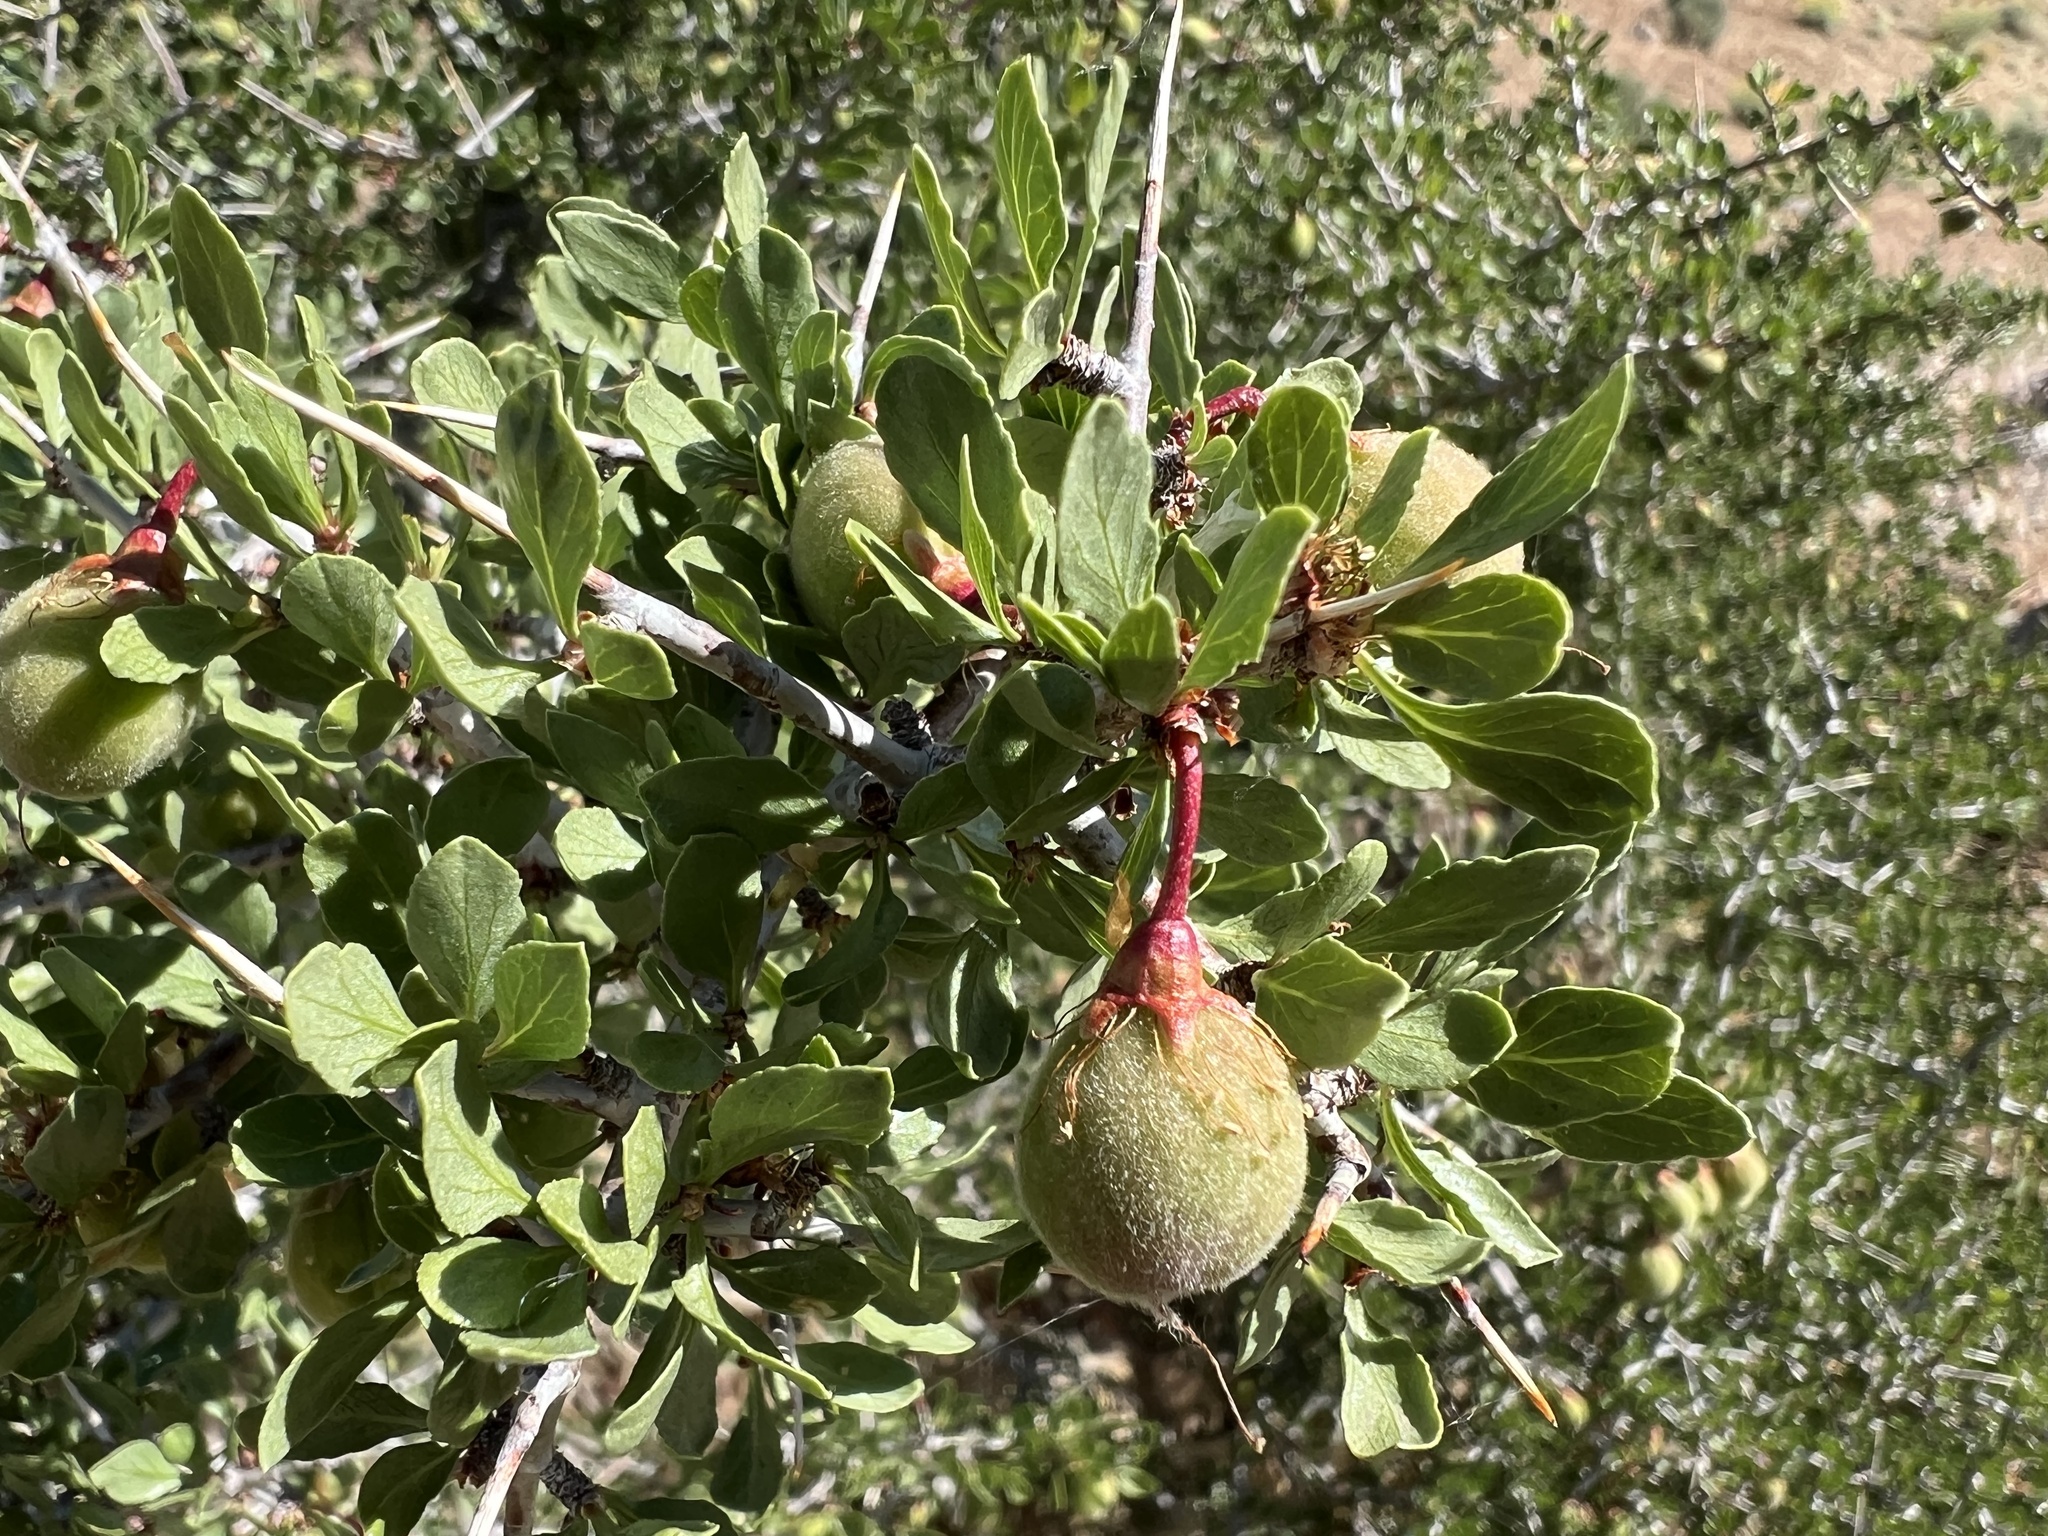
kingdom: Plantae
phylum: Tracheophyta
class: Magnoliopsida
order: Rosales
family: Rosaceae
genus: Prunus
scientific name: Prunus andersonii
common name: Desert peach
